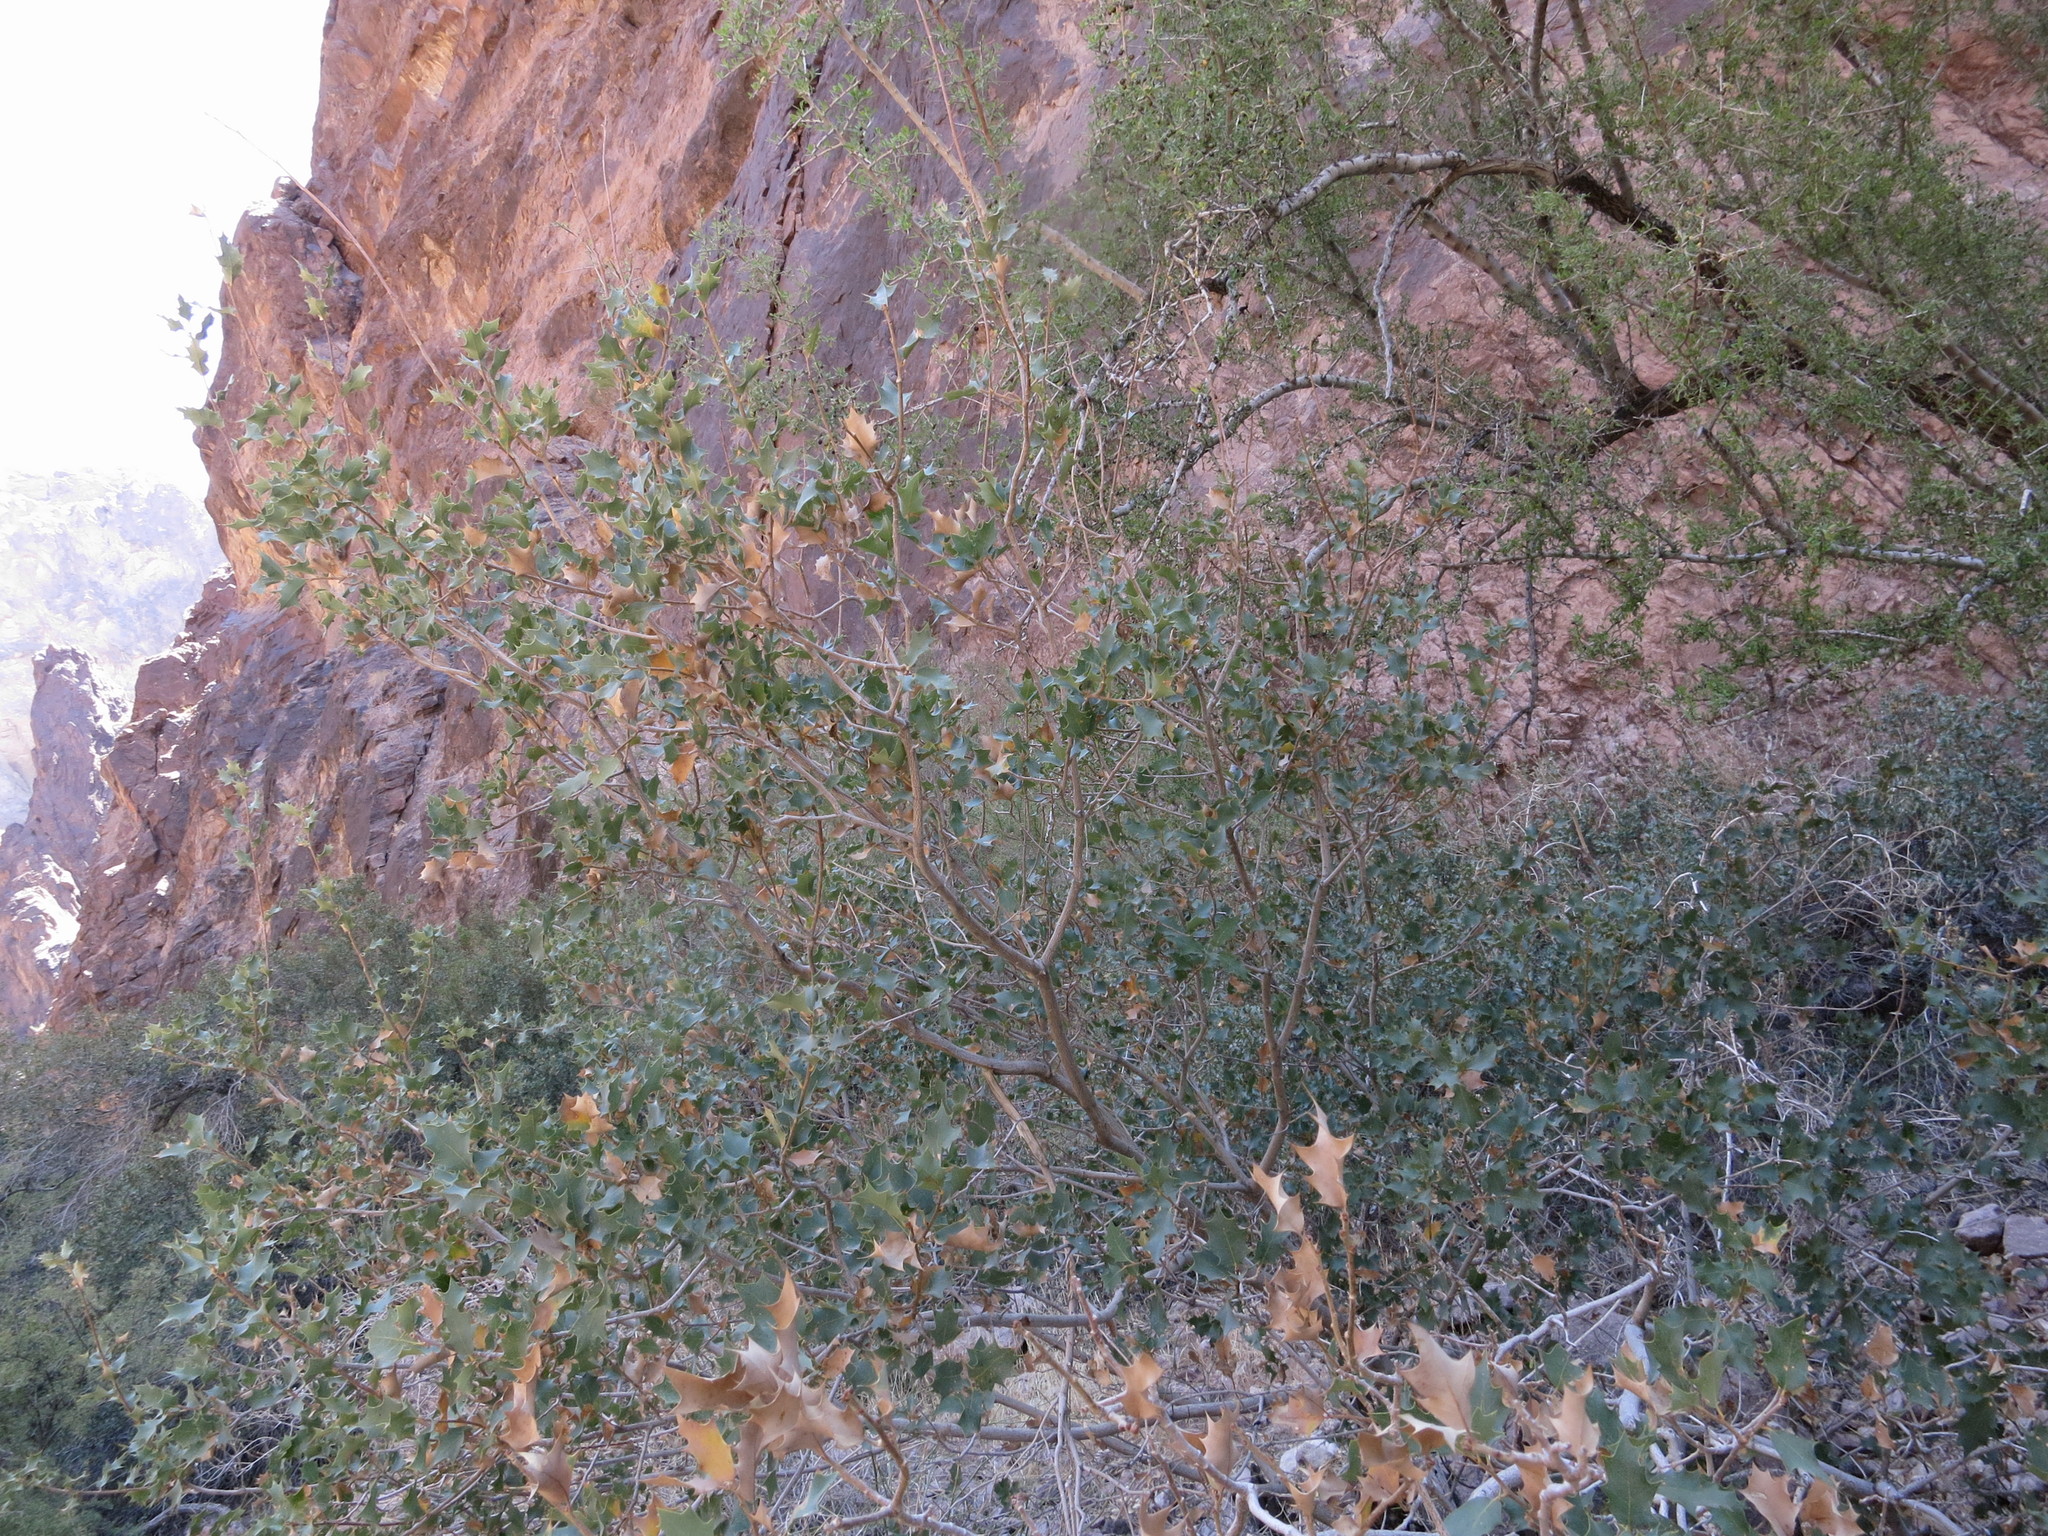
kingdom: Plantae
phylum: Tracheophyta
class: Magnoliopsida
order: Fagales
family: Fagaceae
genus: Quercus
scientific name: Quercus ajoensis
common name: Ajo mountain scrub oak
